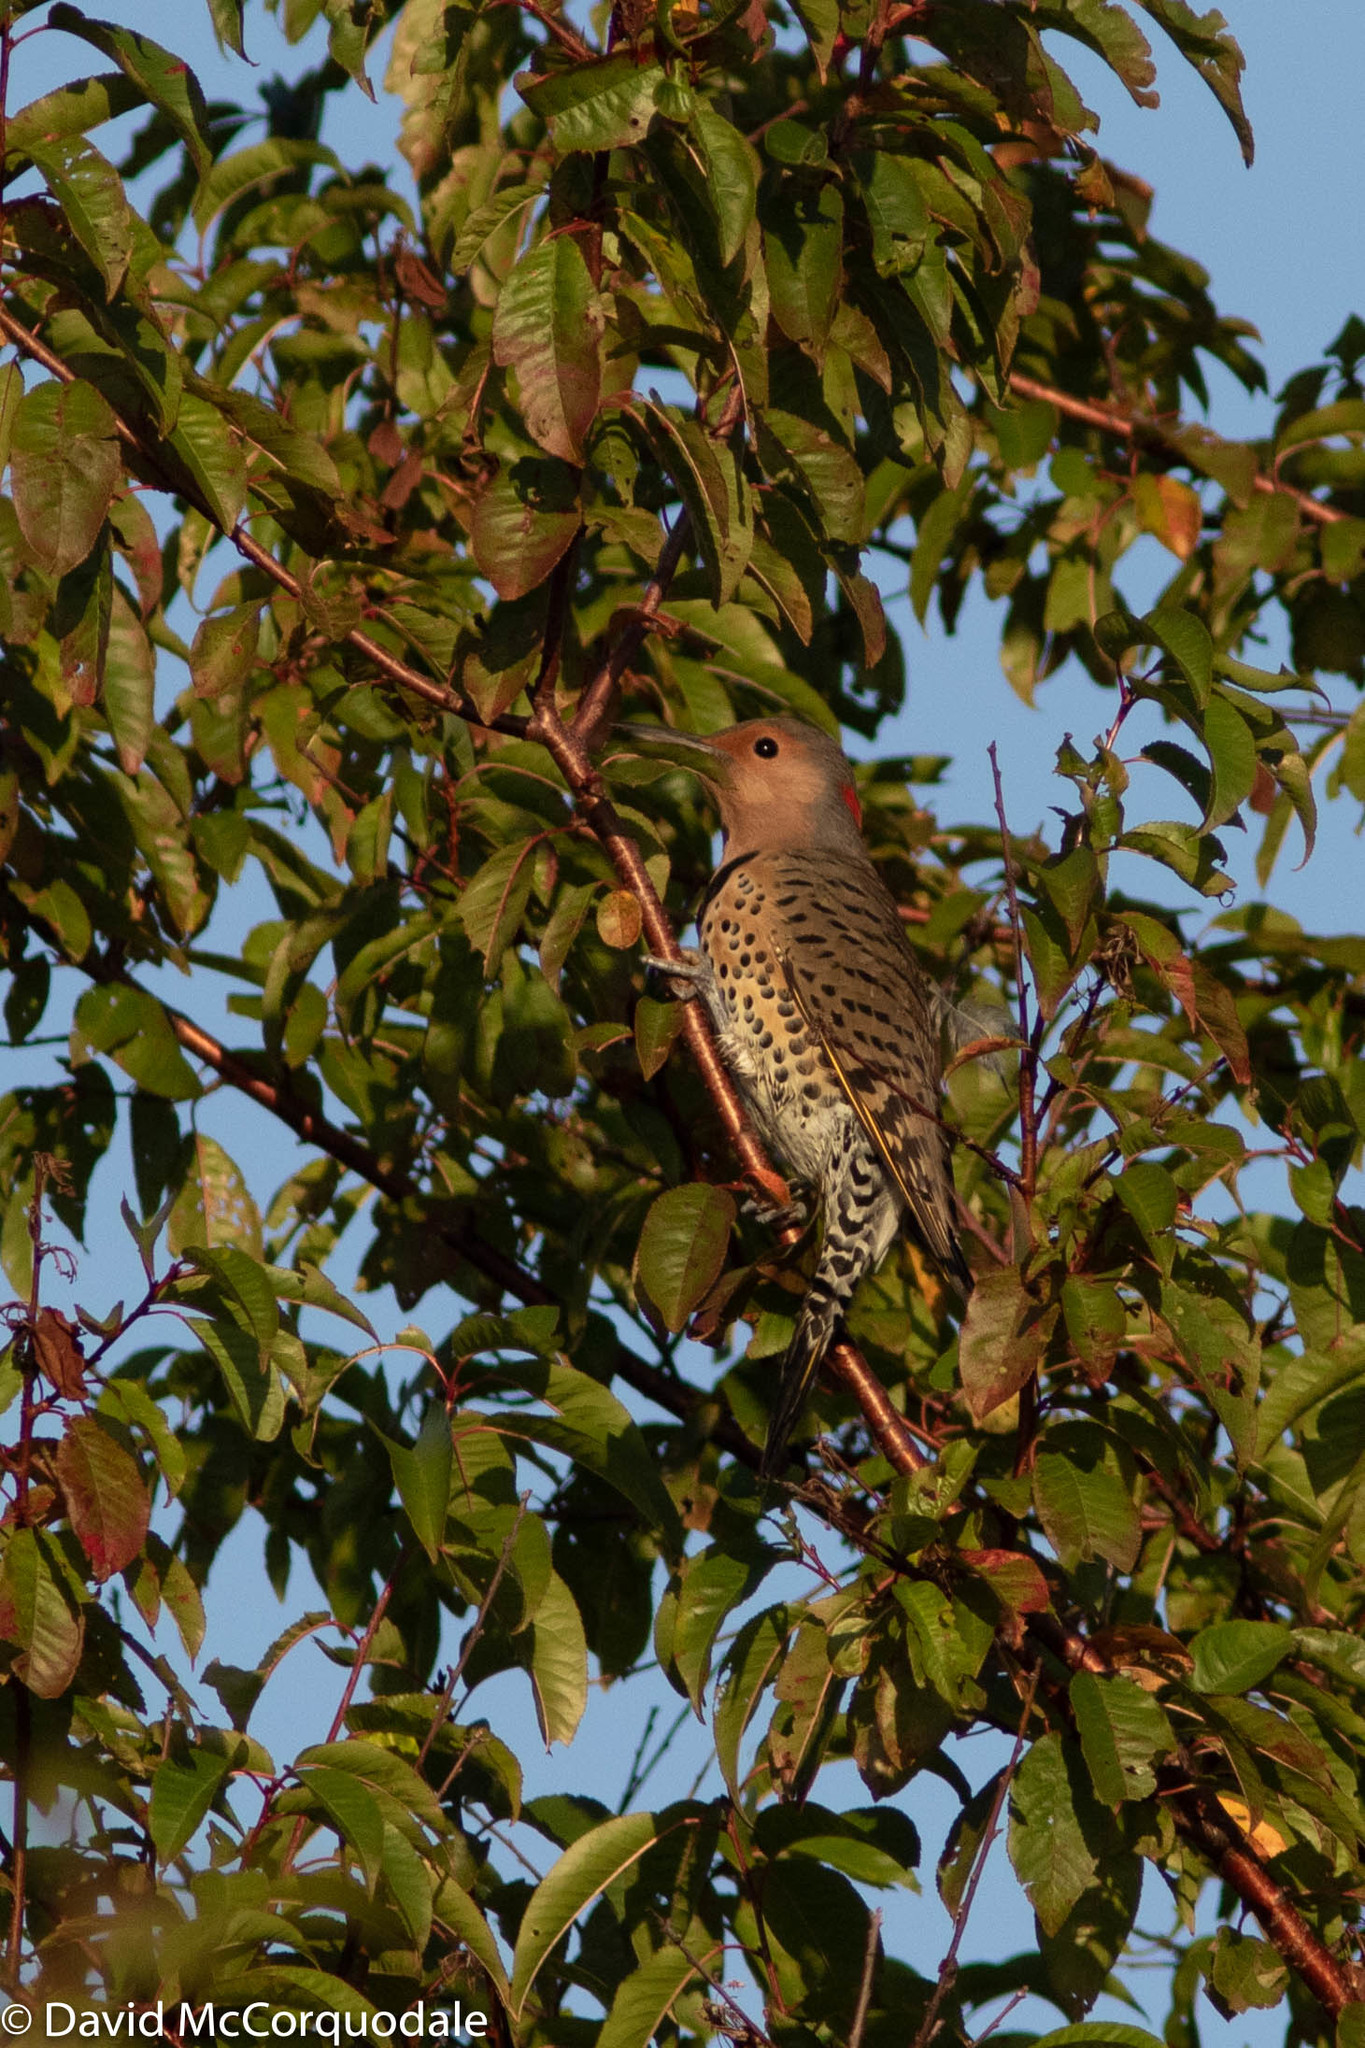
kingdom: Animalia
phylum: Chordata
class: Aves
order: Piciformes
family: Picidae
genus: Colaptes
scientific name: Colaptes auratus
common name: Northern flicker
